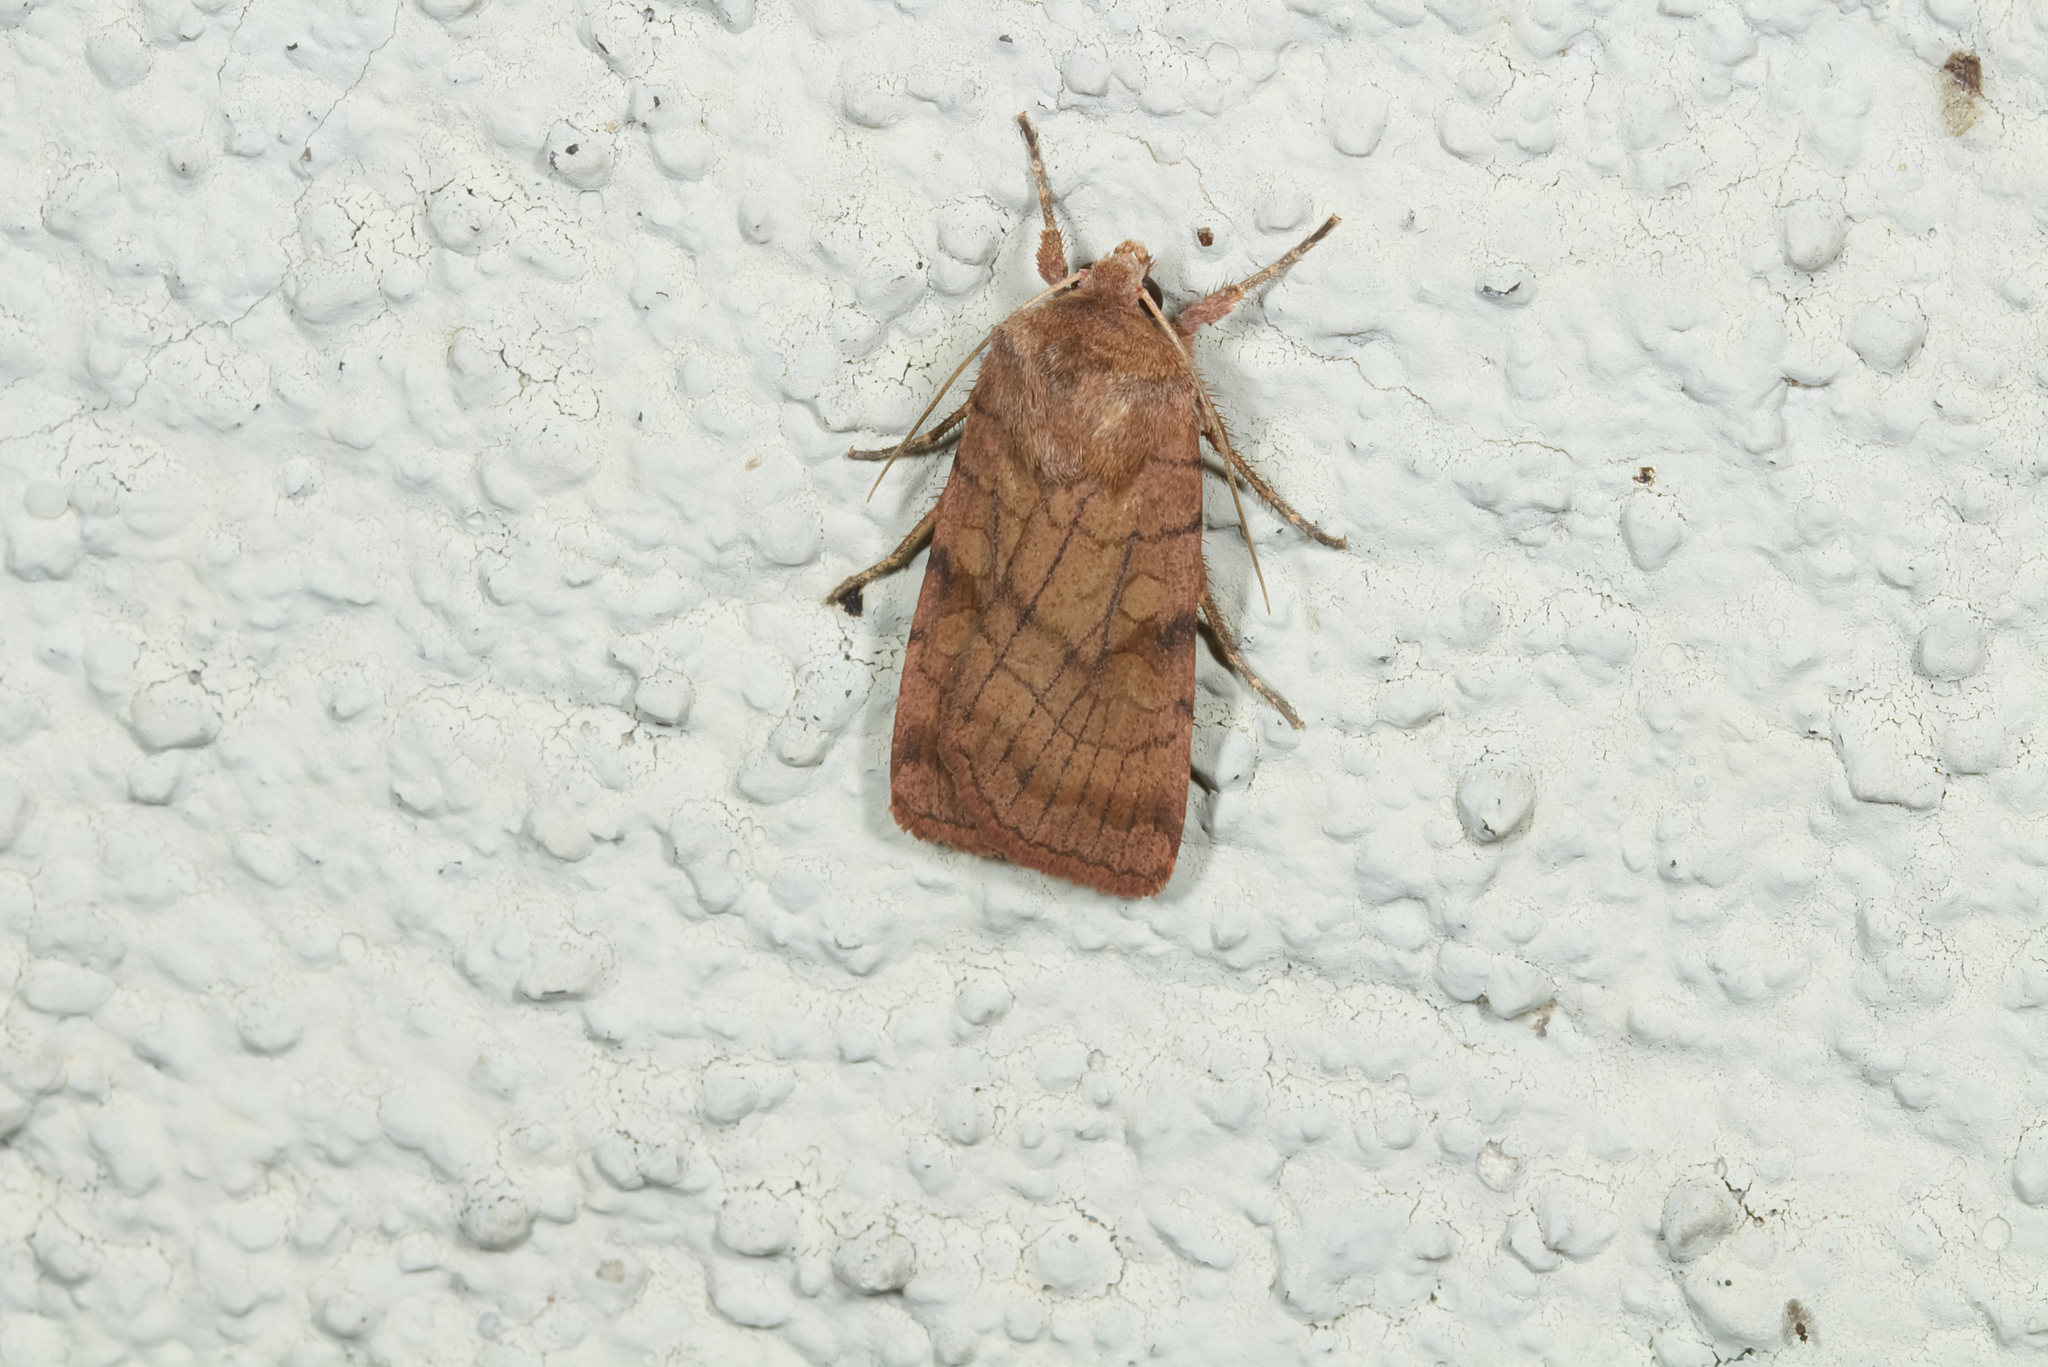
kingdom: Animalia
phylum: Arthropoda
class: Insecta
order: Lepidoptera
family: Noctuidae
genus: Xestia
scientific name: Xestia sexstrigata
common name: Six-striped rustic
